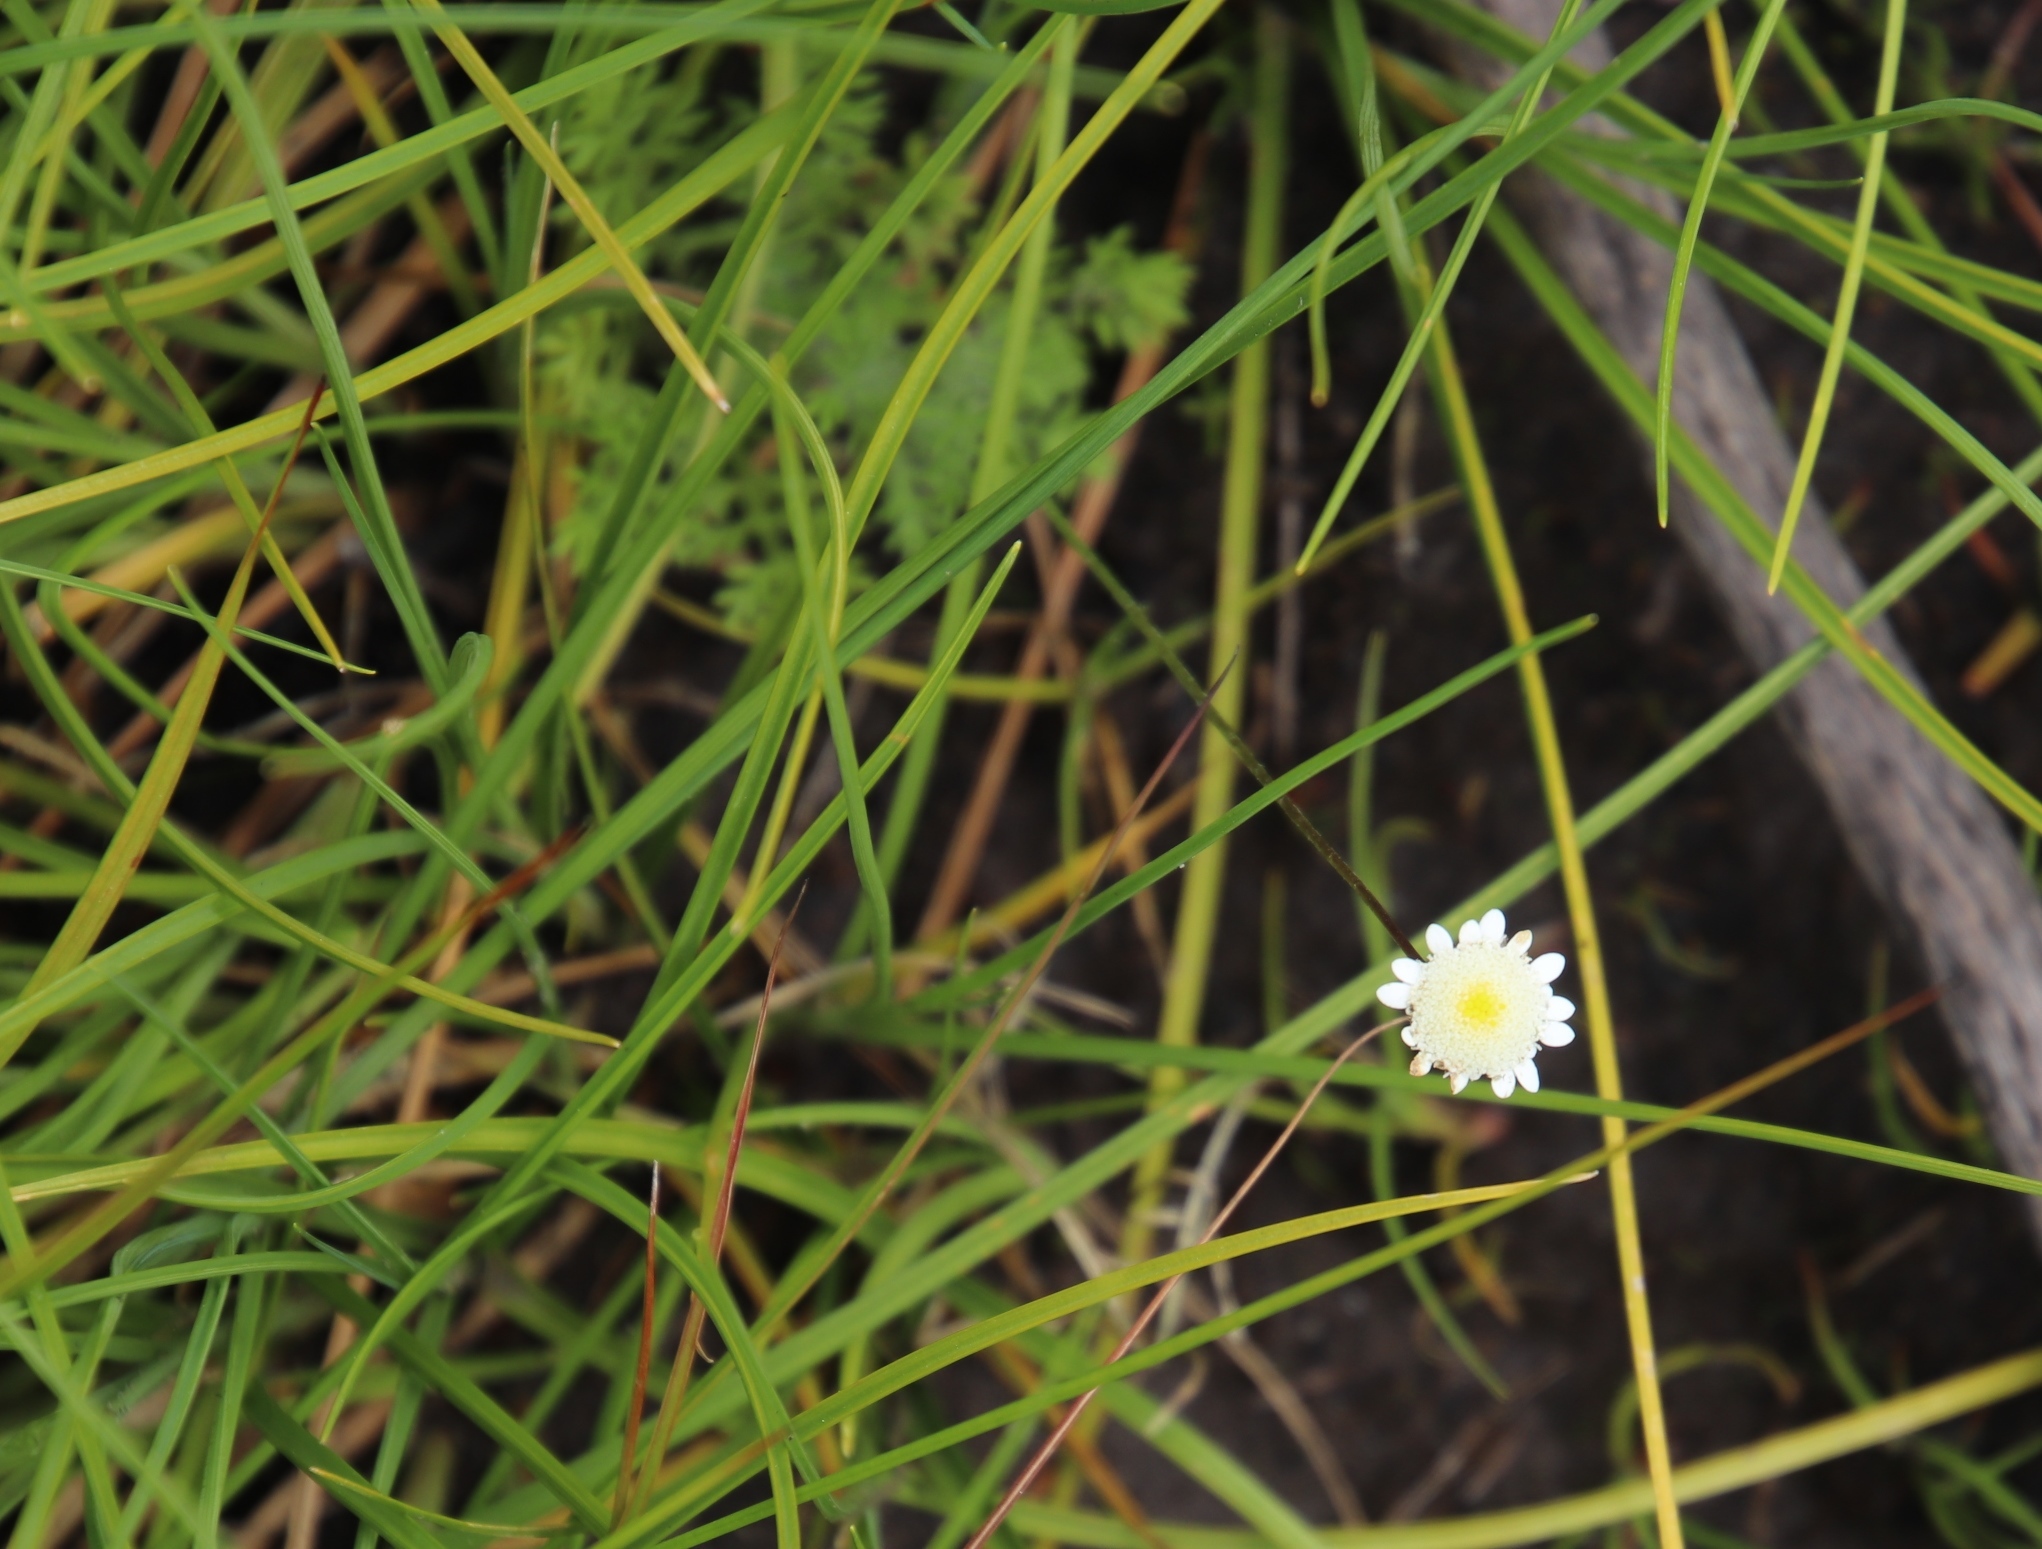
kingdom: Plantae
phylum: Tracheophyta
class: Magnoliopsida
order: Asterales
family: Asteraceae
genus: Cotula
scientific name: Cotula turbinata
